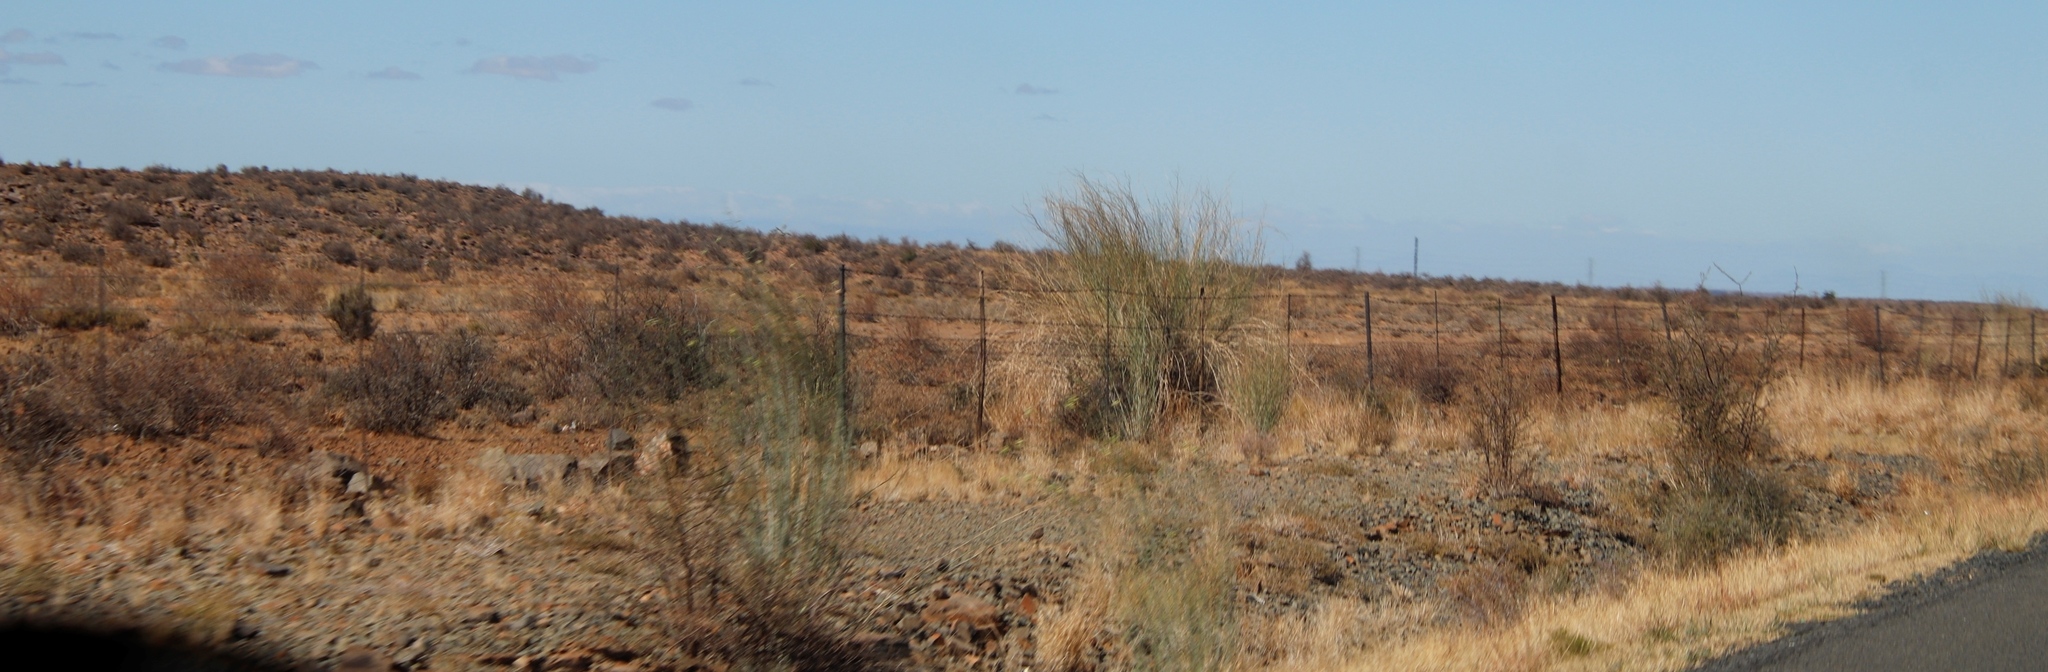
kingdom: Plantae
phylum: Tracheophyta
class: Magnoliopsida
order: Gentianales
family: Apocynaceae
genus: Gomphocarpus
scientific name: Gomphocarpus filiformis
